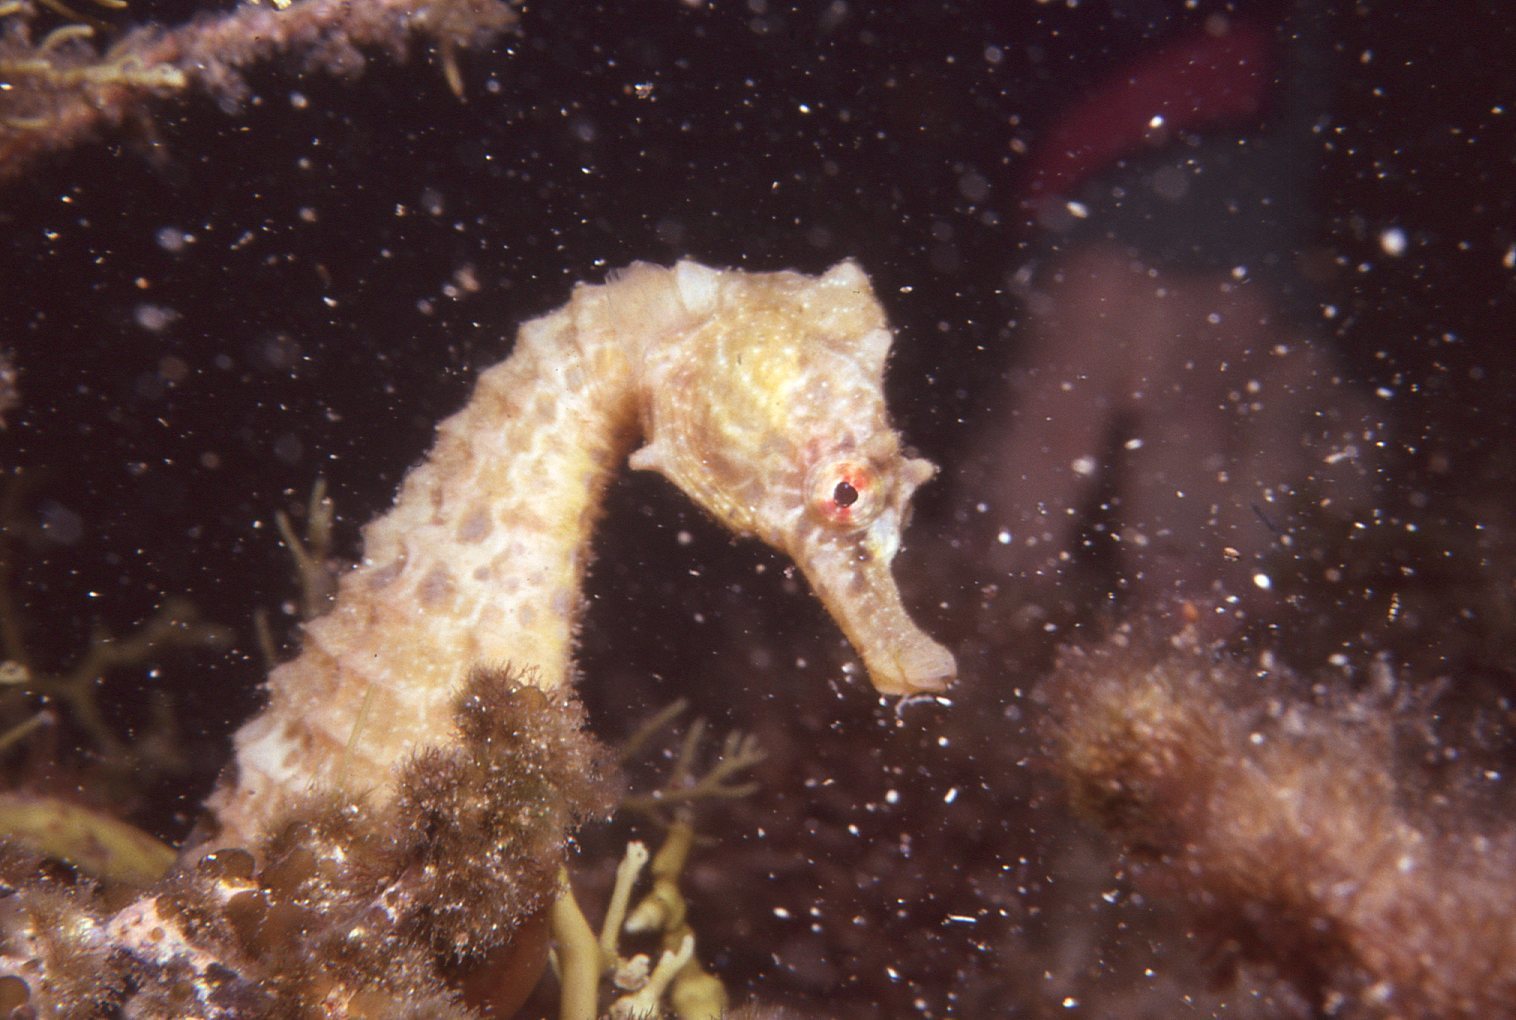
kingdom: Animalia
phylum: Chordata
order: Syngnathiformes
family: Syngnathidae
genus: Hippocampus
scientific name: Hippocampus abdominalis
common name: Big-belly seahorse
